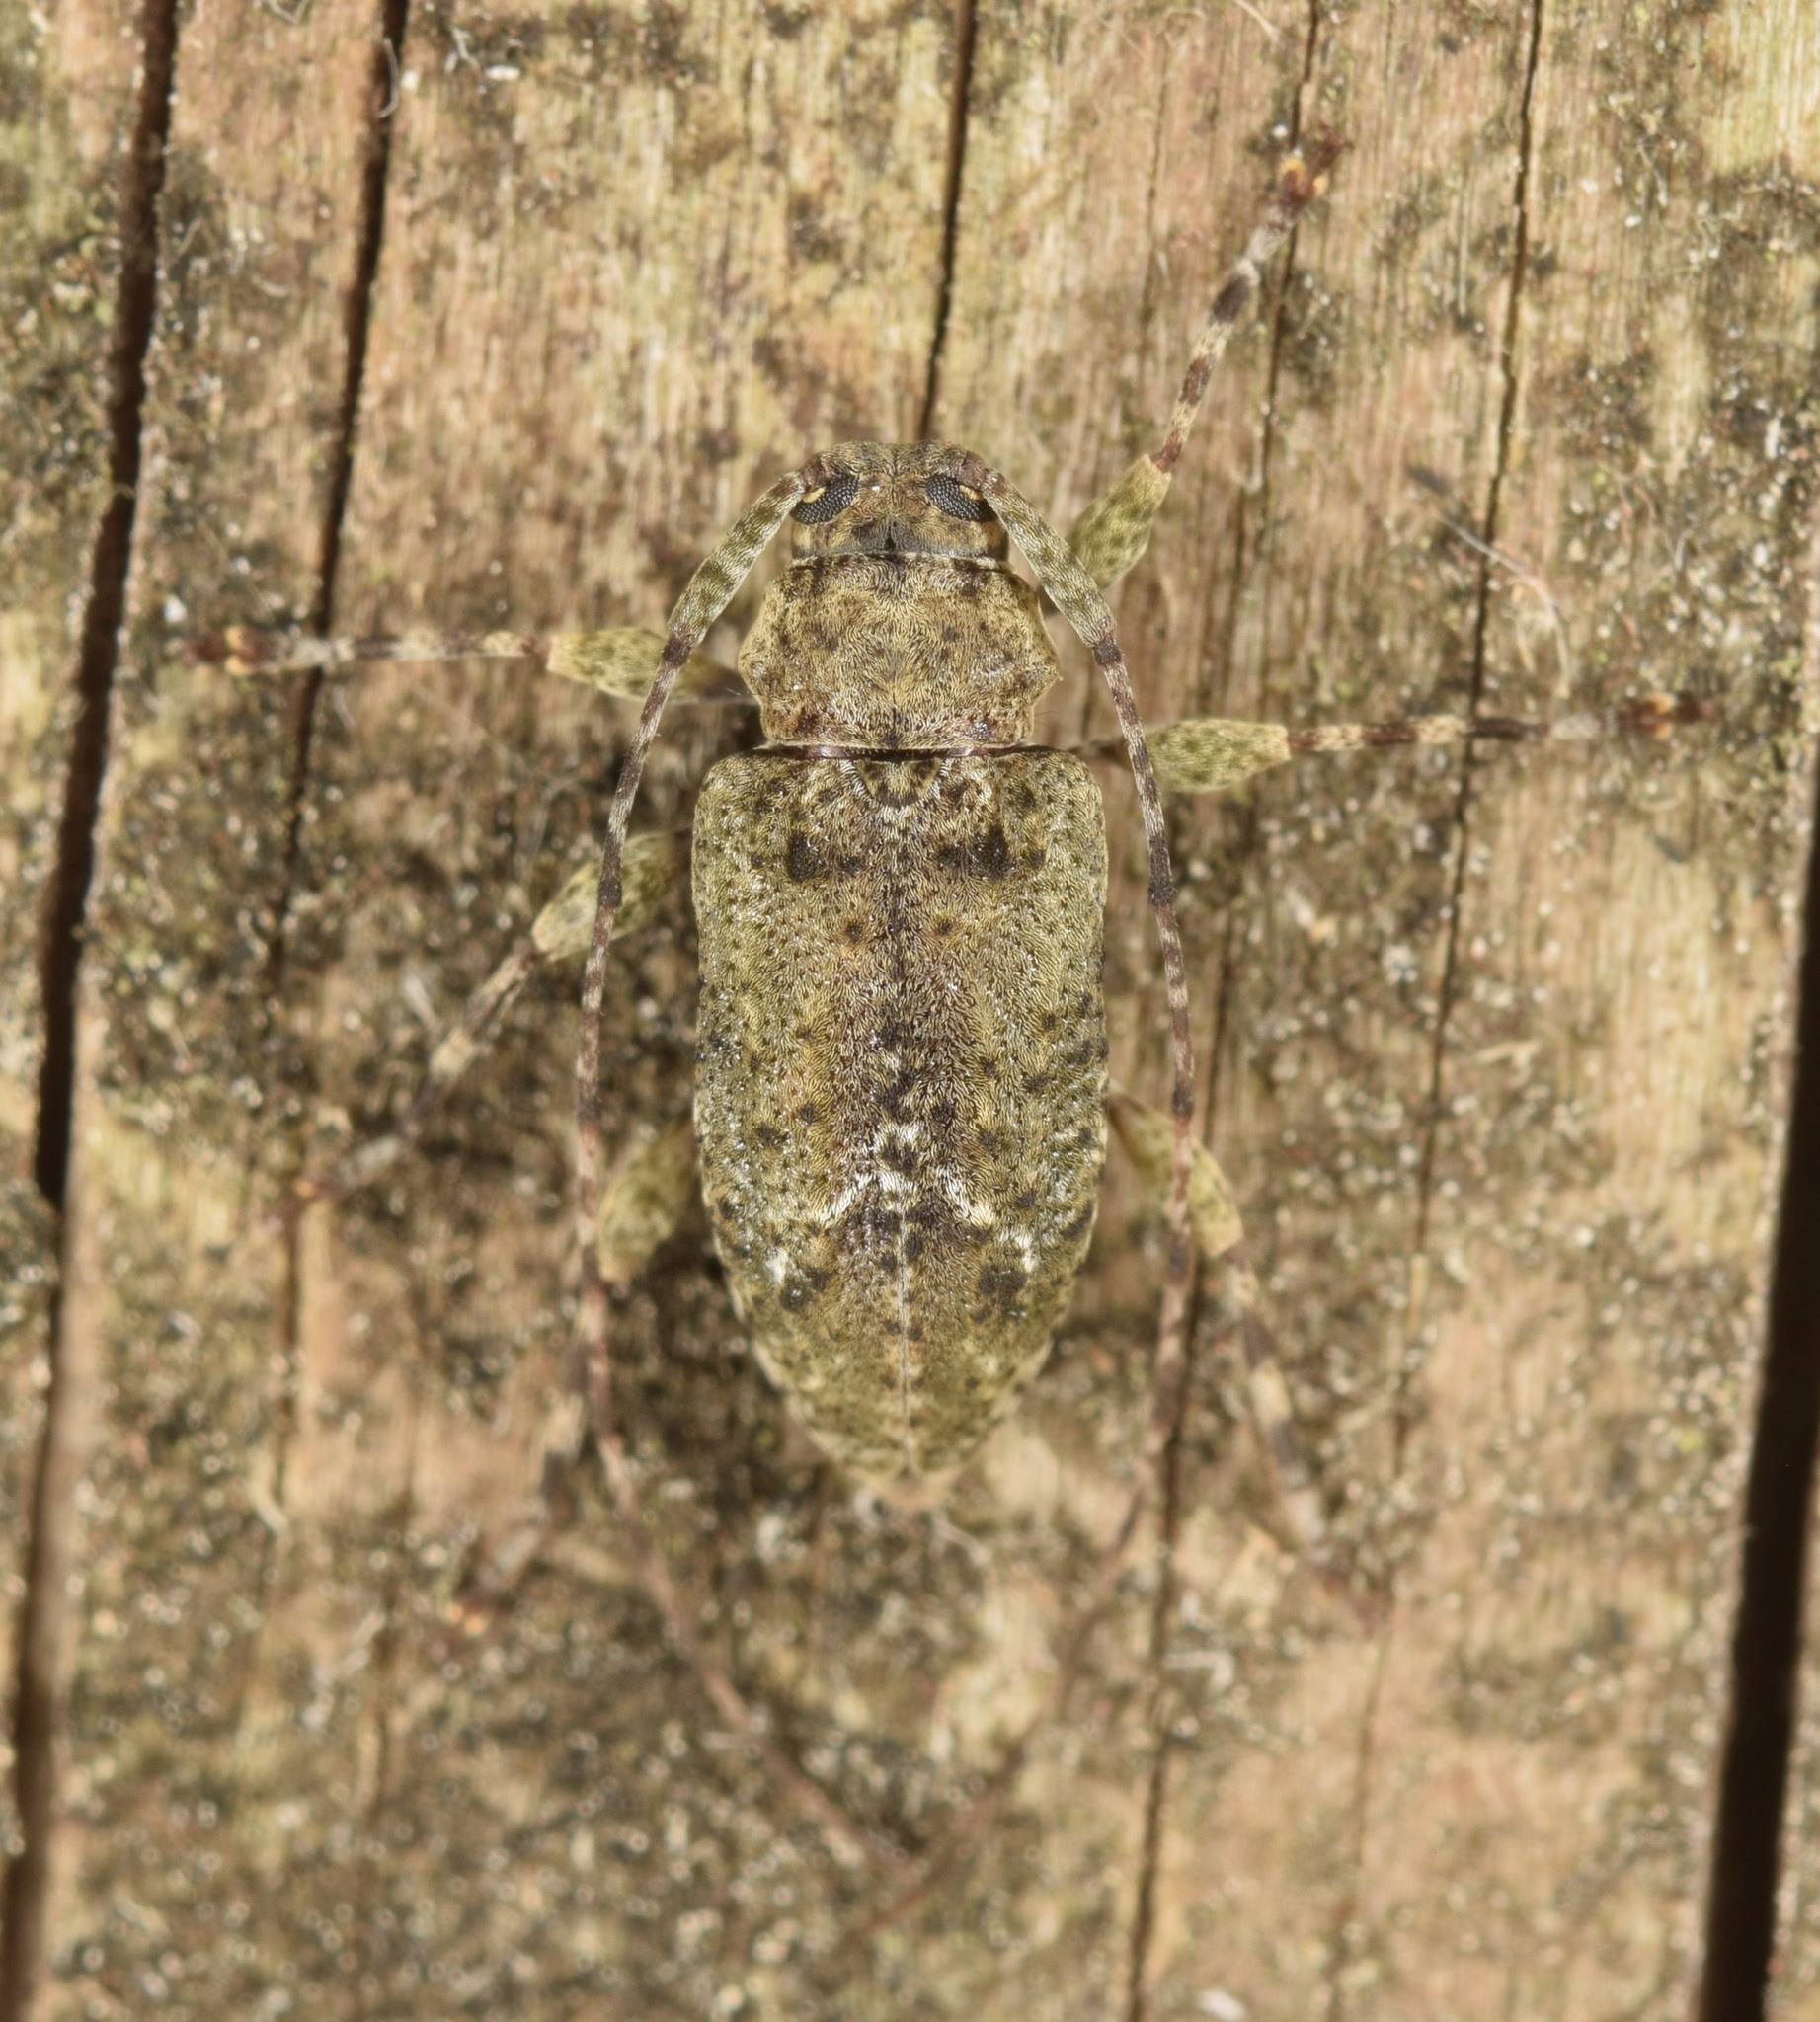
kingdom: Animalia
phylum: Arthropoda
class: Insecta
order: Coleoptera
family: Cerambycidae
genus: Astylidius
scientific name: Astylidius parvus
